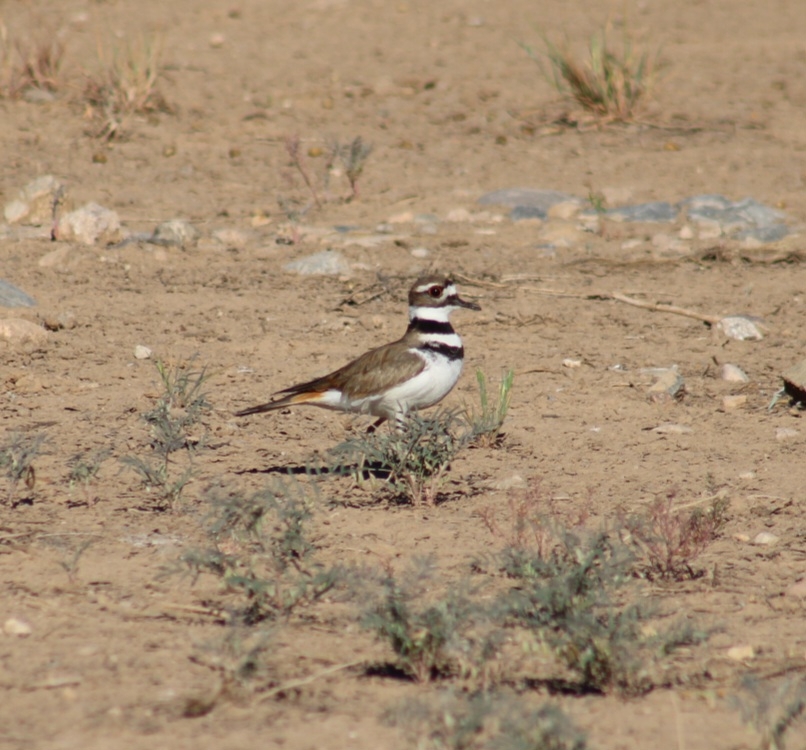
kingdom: Animalia
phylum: Chordata
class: Aves
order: Charadriiformes
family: Charadriidae
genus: Charadrius
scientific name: Charadrius vociferus
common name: Killdeer
